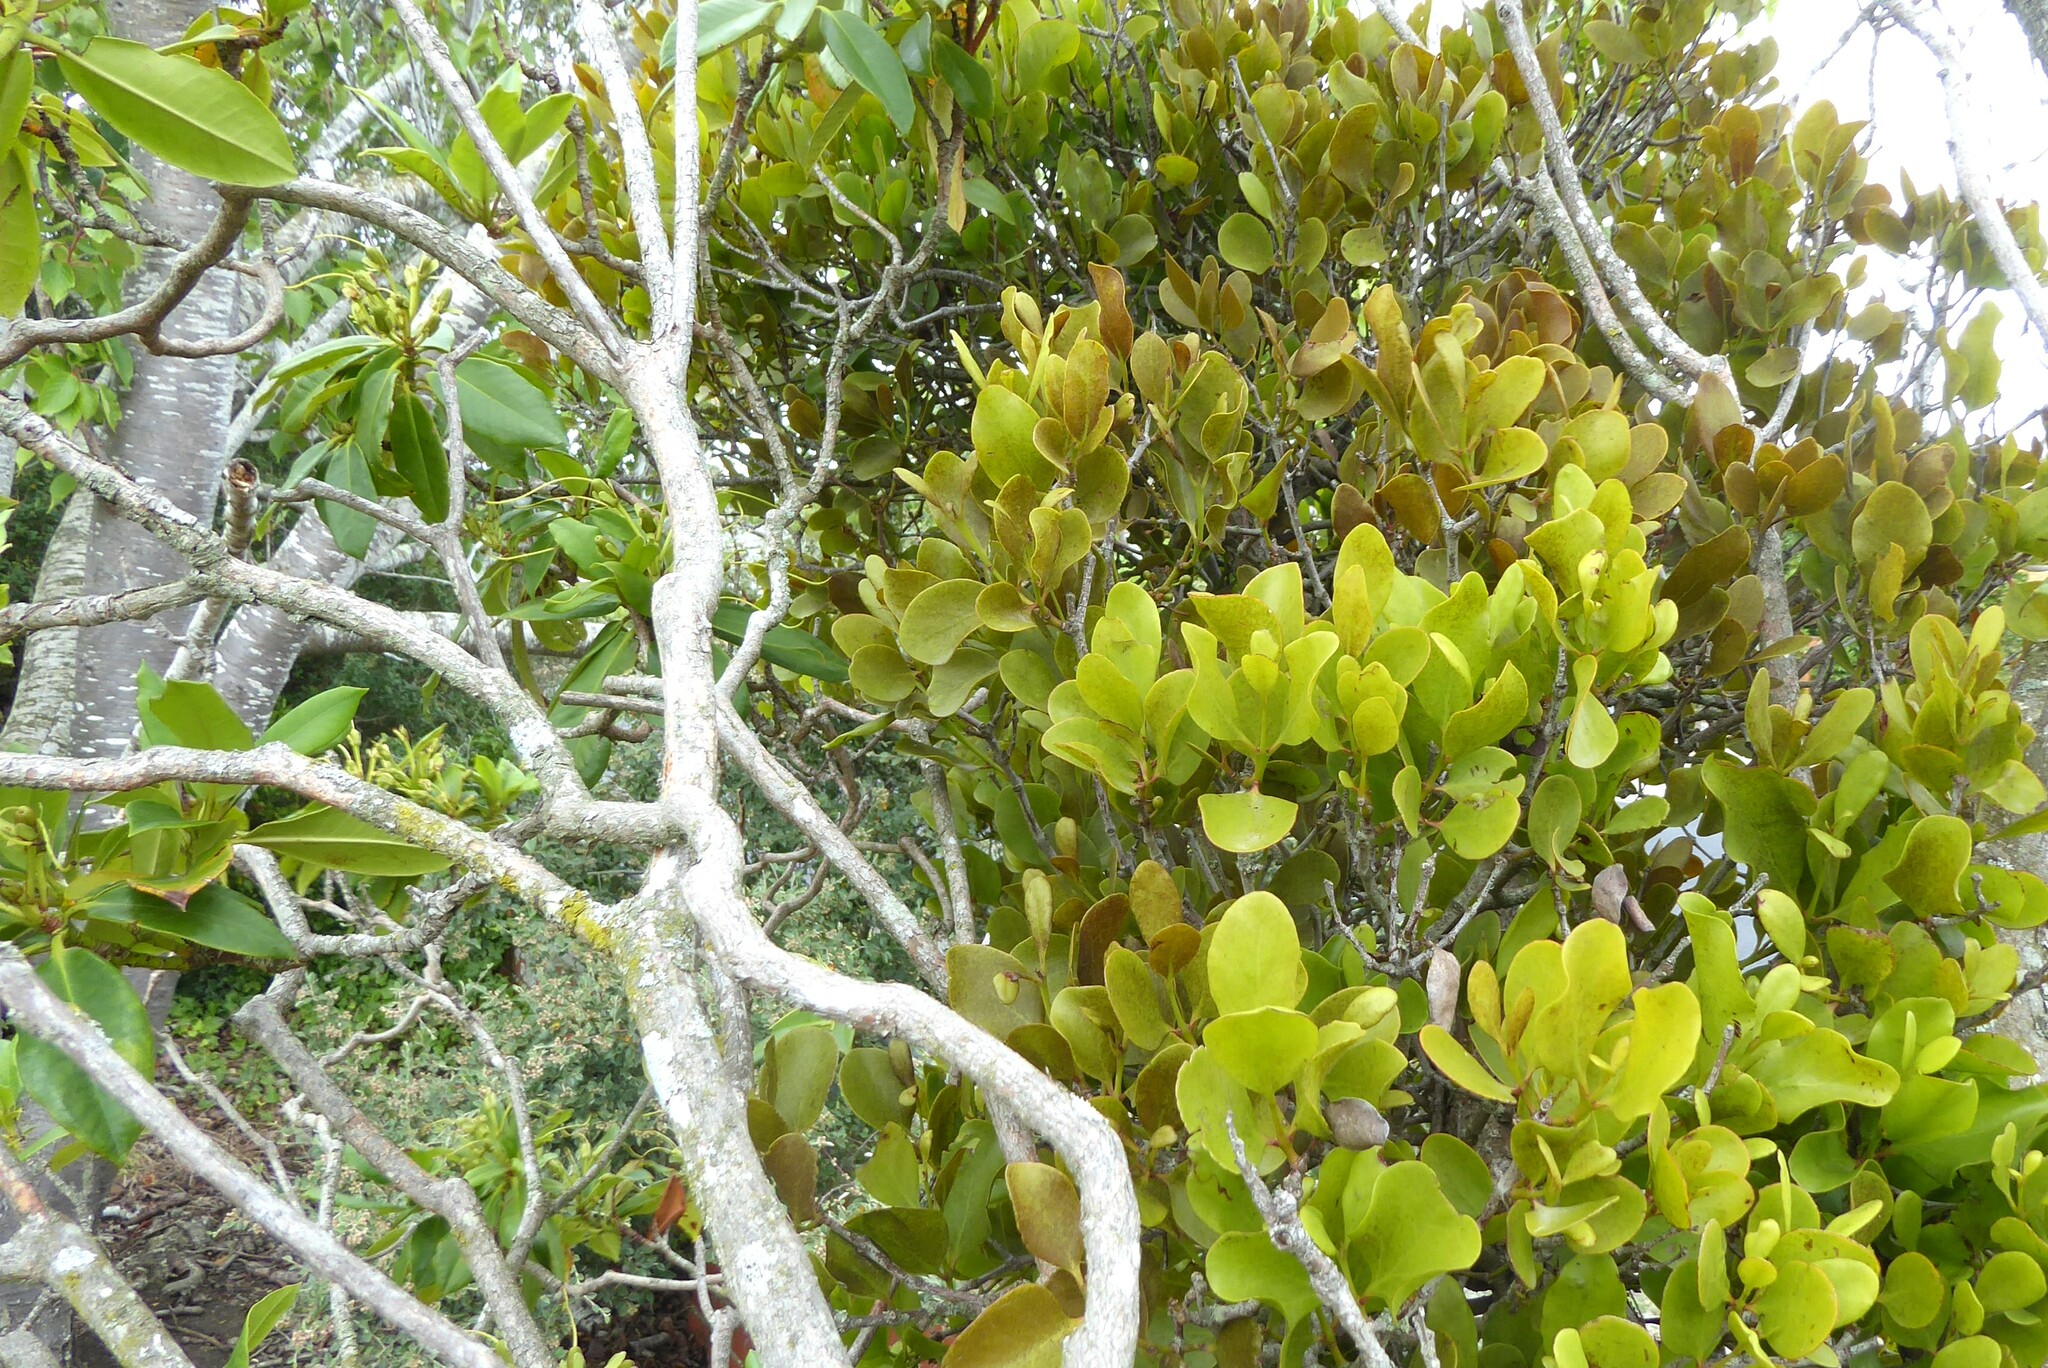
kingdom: Plantae
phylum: Tracheophyta
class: Magnoliopsida
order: Santalales
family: Loranthaceae
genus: Ileostylus
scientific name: Ileostylus micranthus
